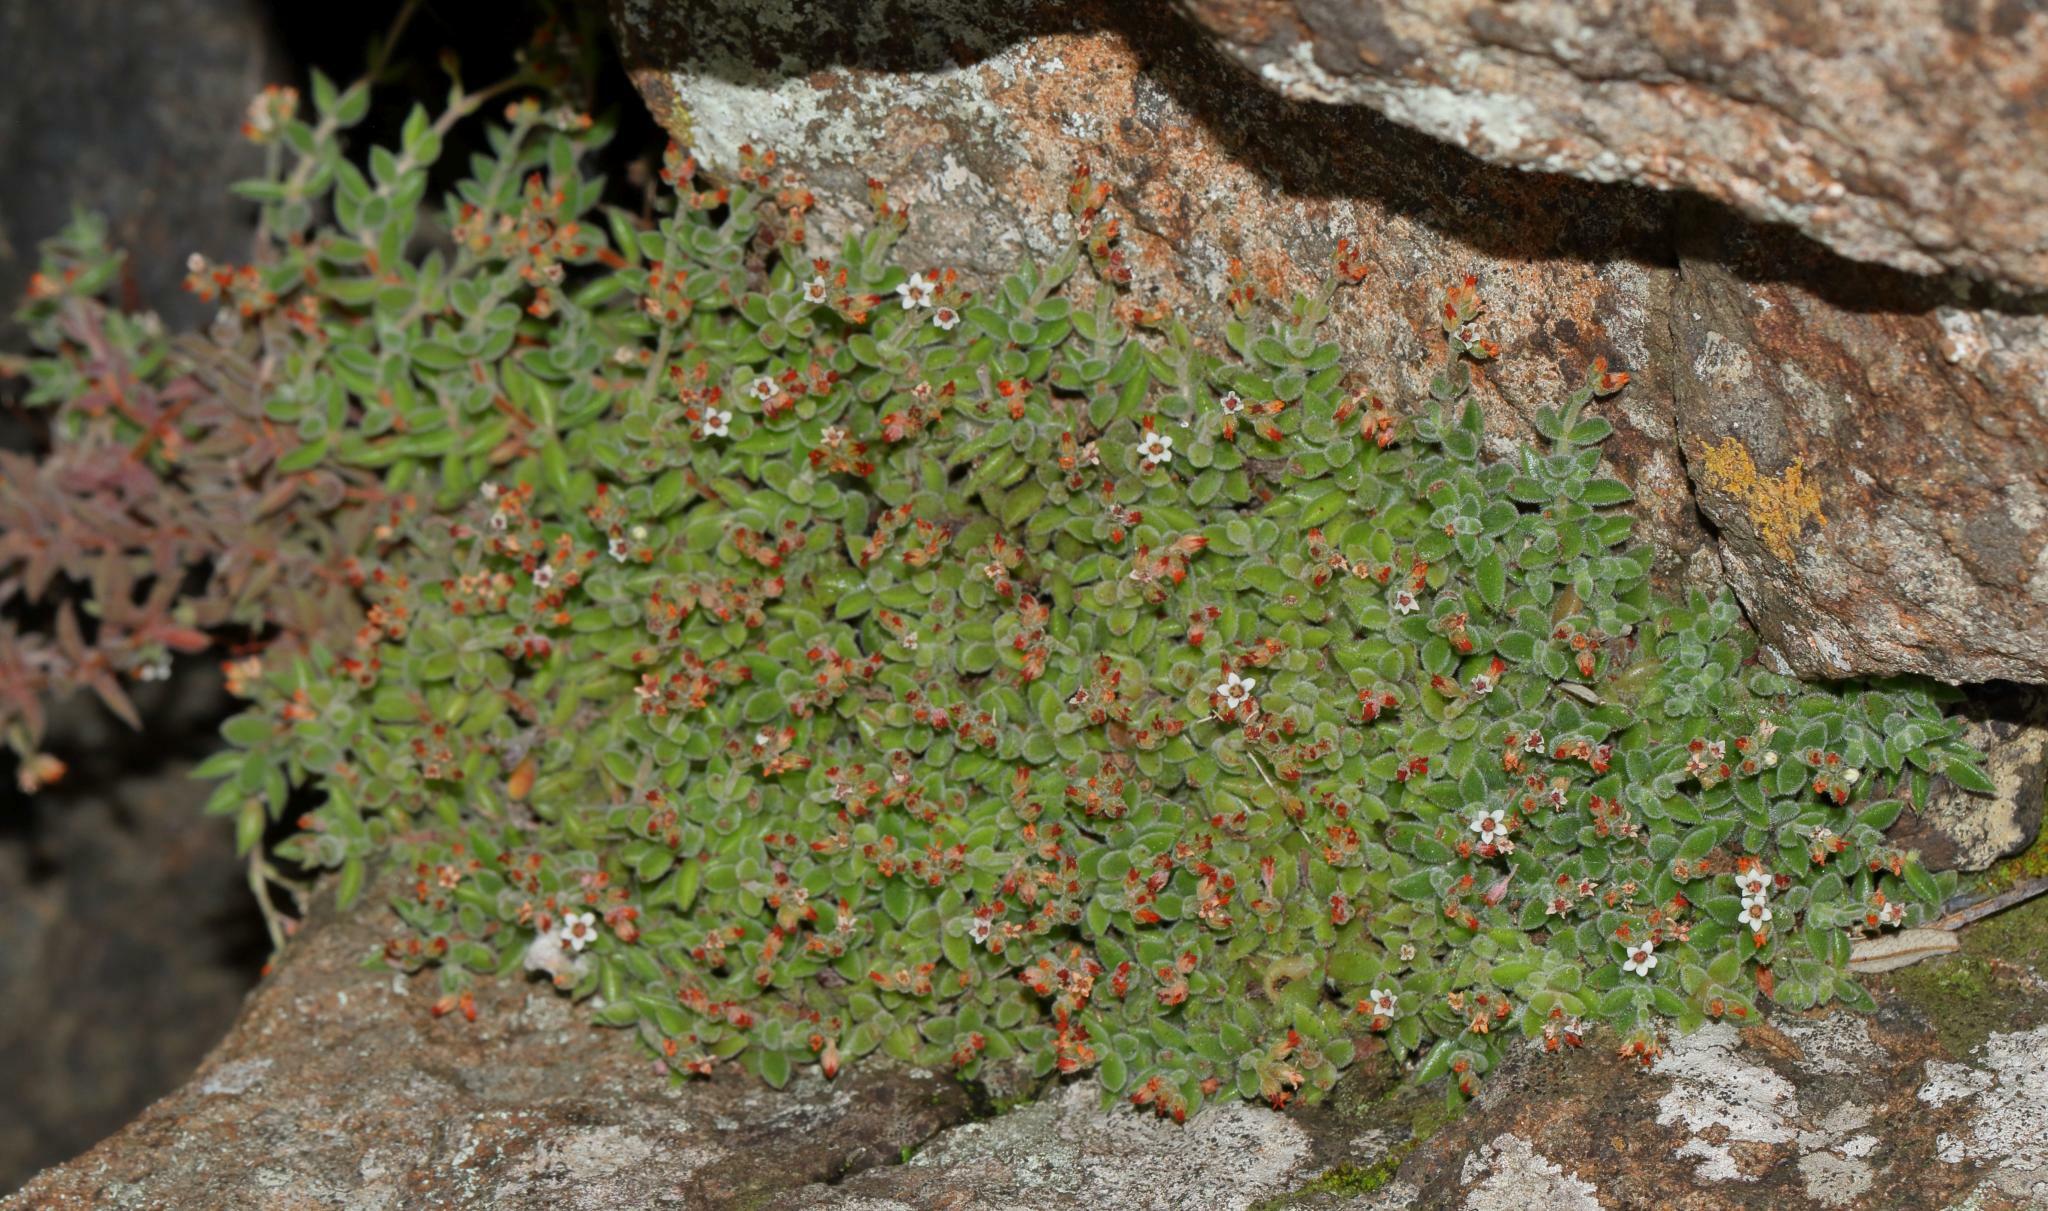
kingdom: Plantae
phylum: Tracheophyta
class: Magnoliopsida
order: Saxifragales
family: Crassulaceae
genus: Crassula
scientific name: Crassula lanuginosa
